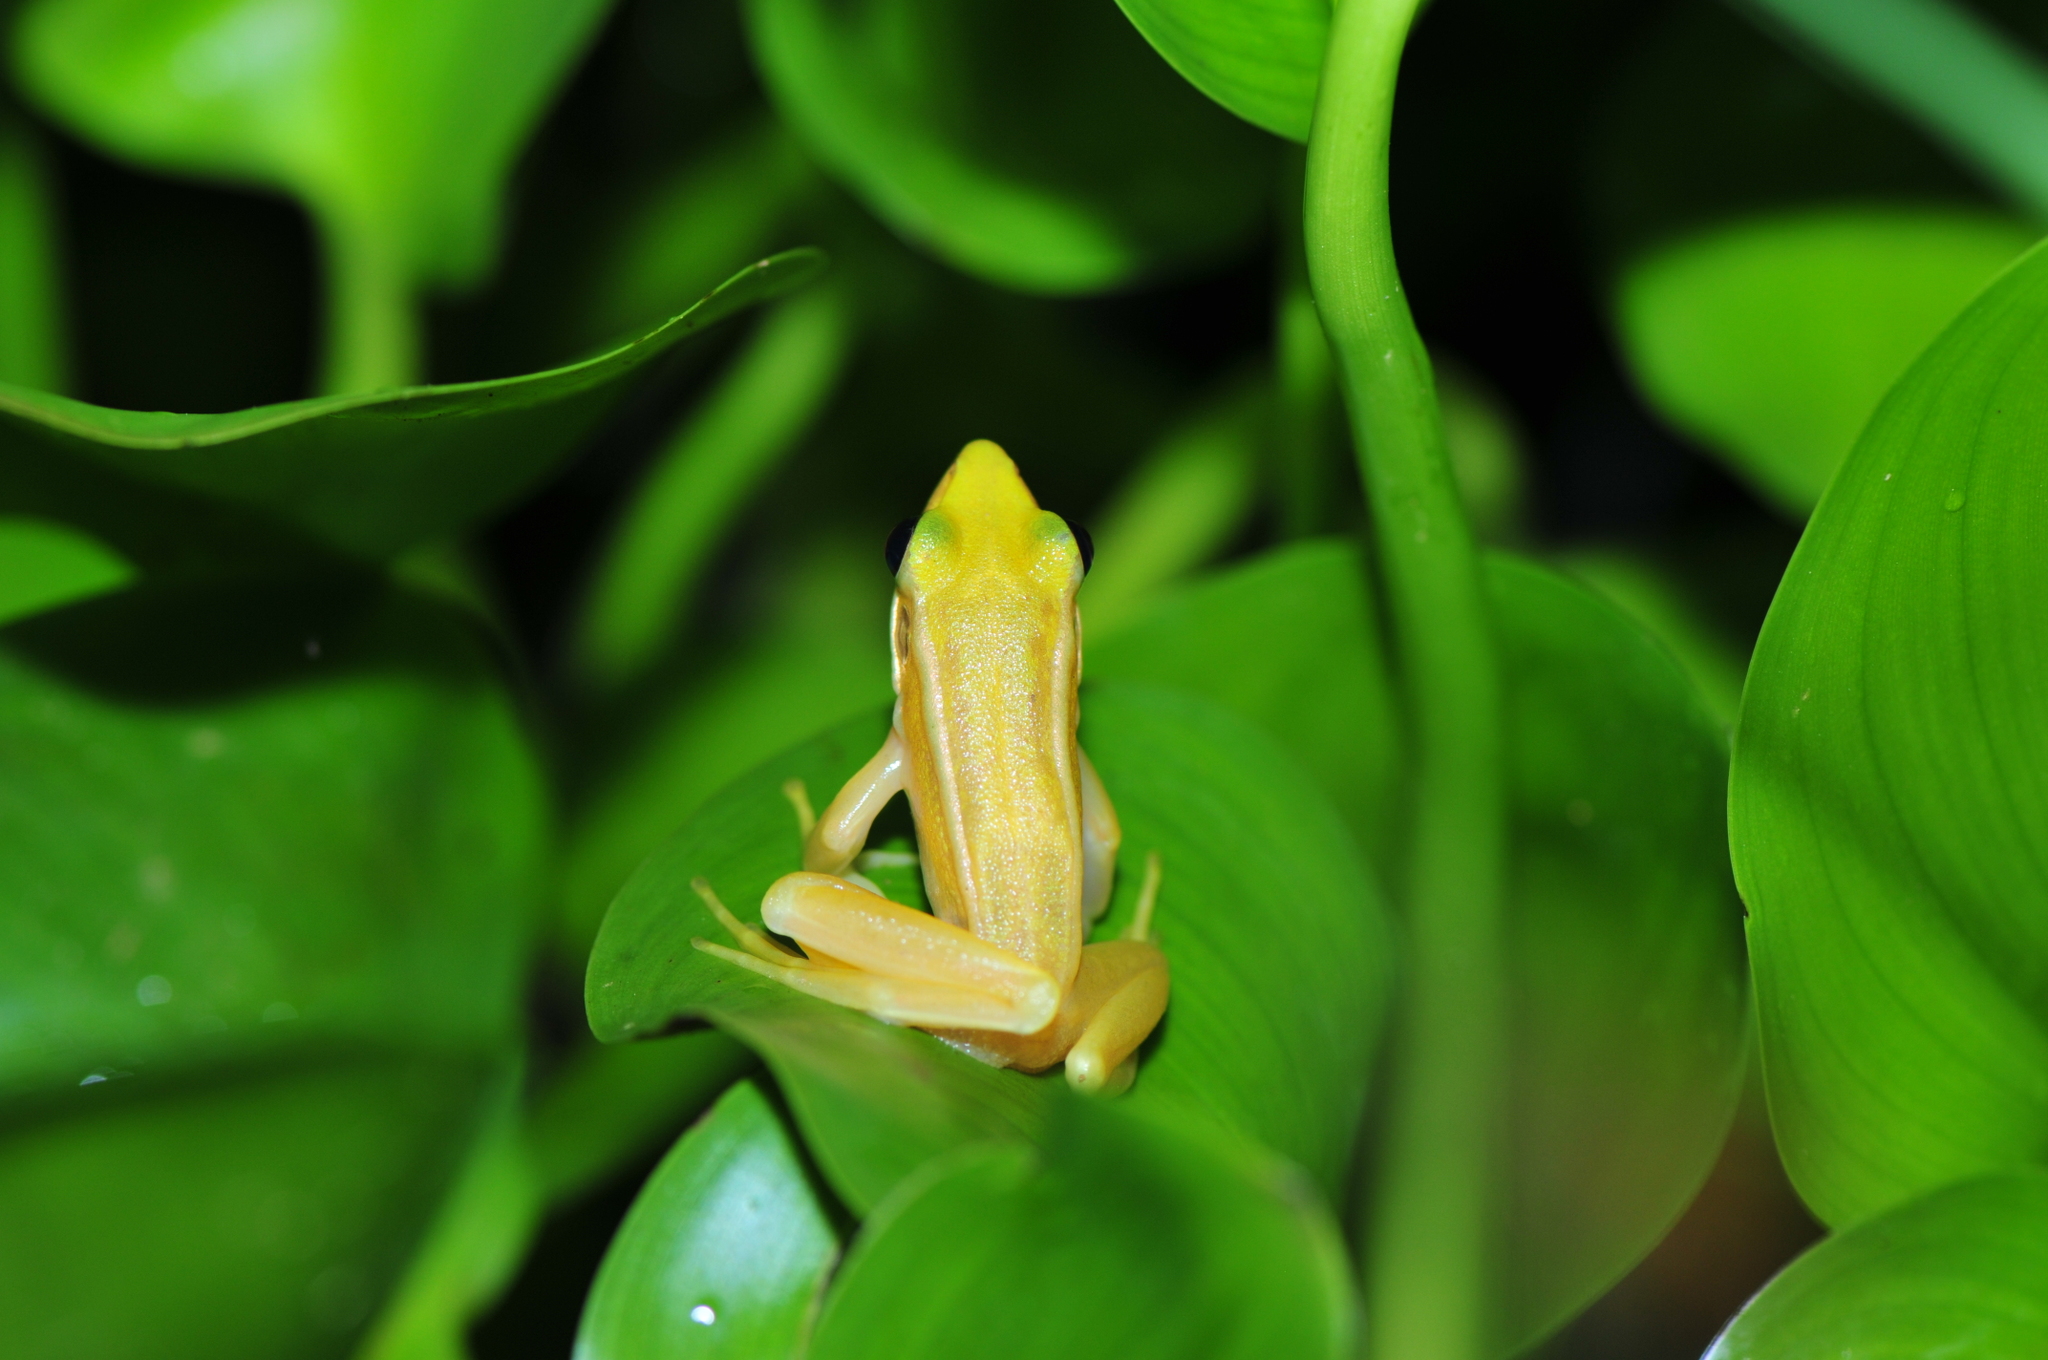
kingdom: Animalia
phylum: Chordata
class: Amphibia
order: Anura
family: Ranidae
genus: Hylarana
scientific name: Hylarana erythraea
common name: Common green frog/green paddy frog/leaf frog
